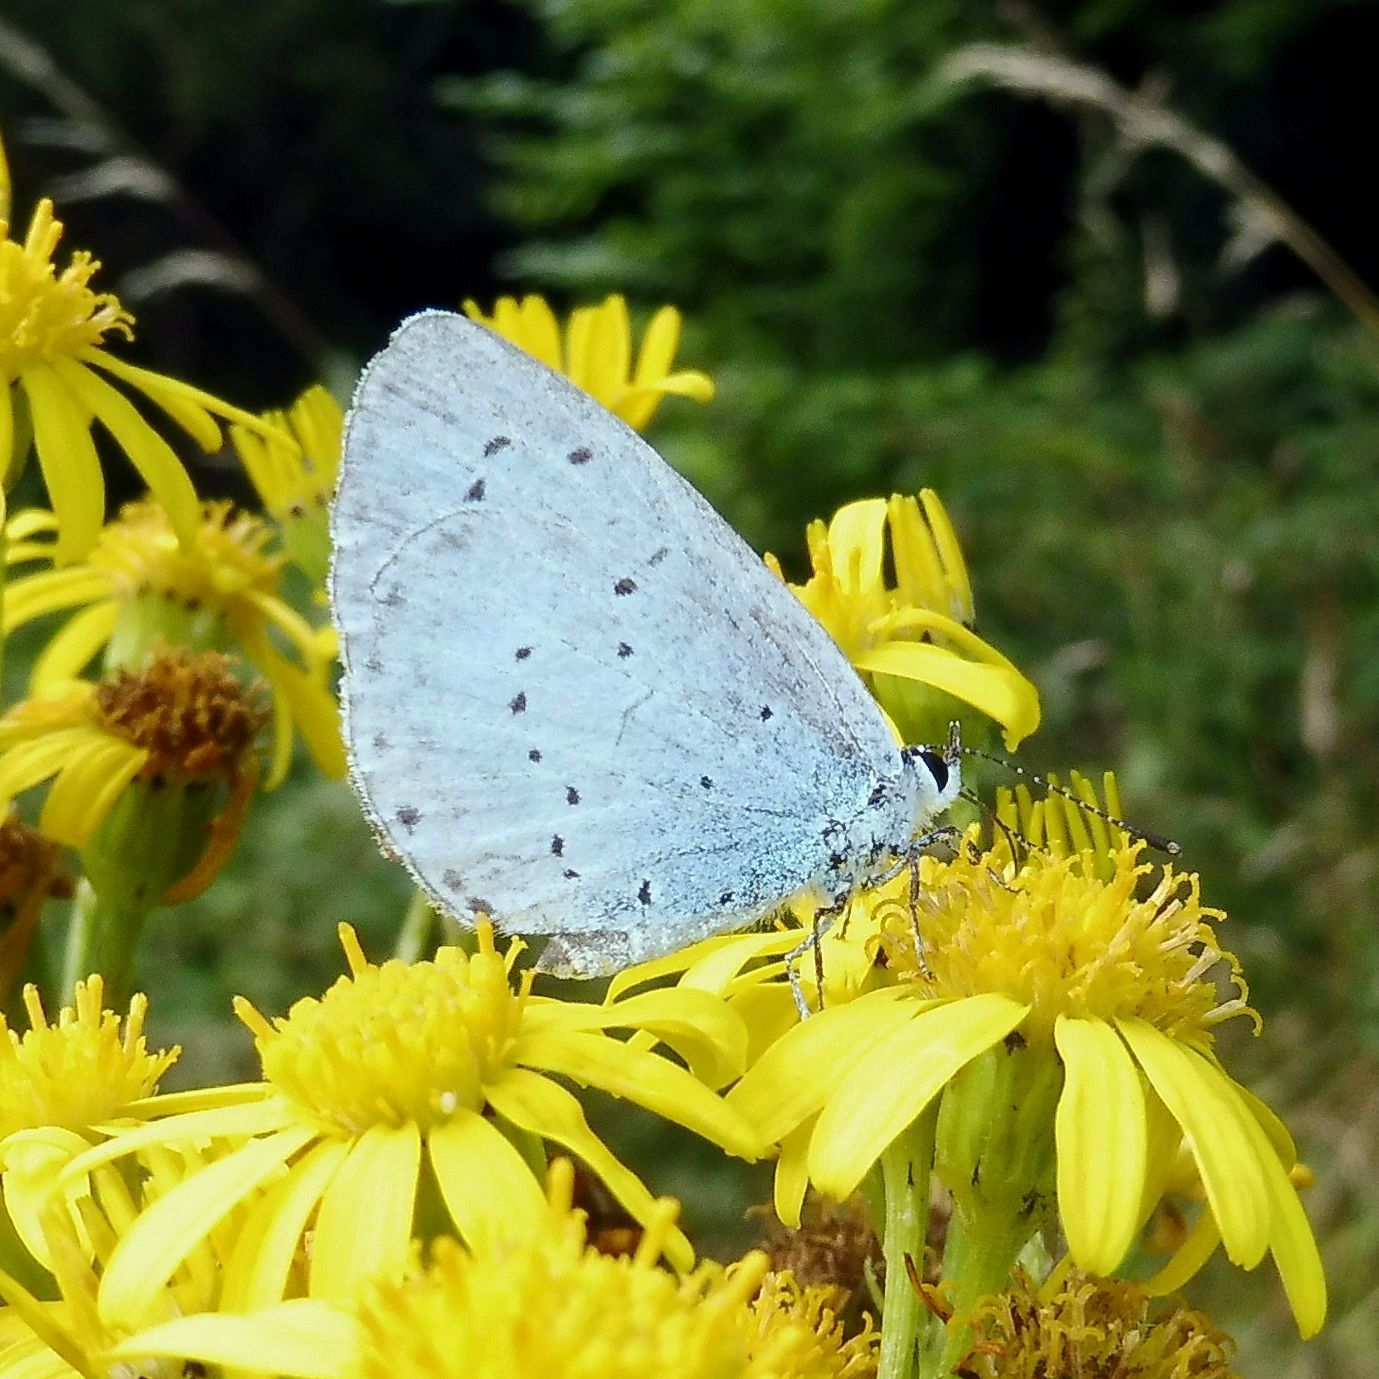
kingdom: Animalia
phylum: Arthropoda
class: Insecta
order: Lepidoptera
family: Lycaenidae
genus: Celastrina
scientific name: Celastrina argiolus
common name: Holly blue
